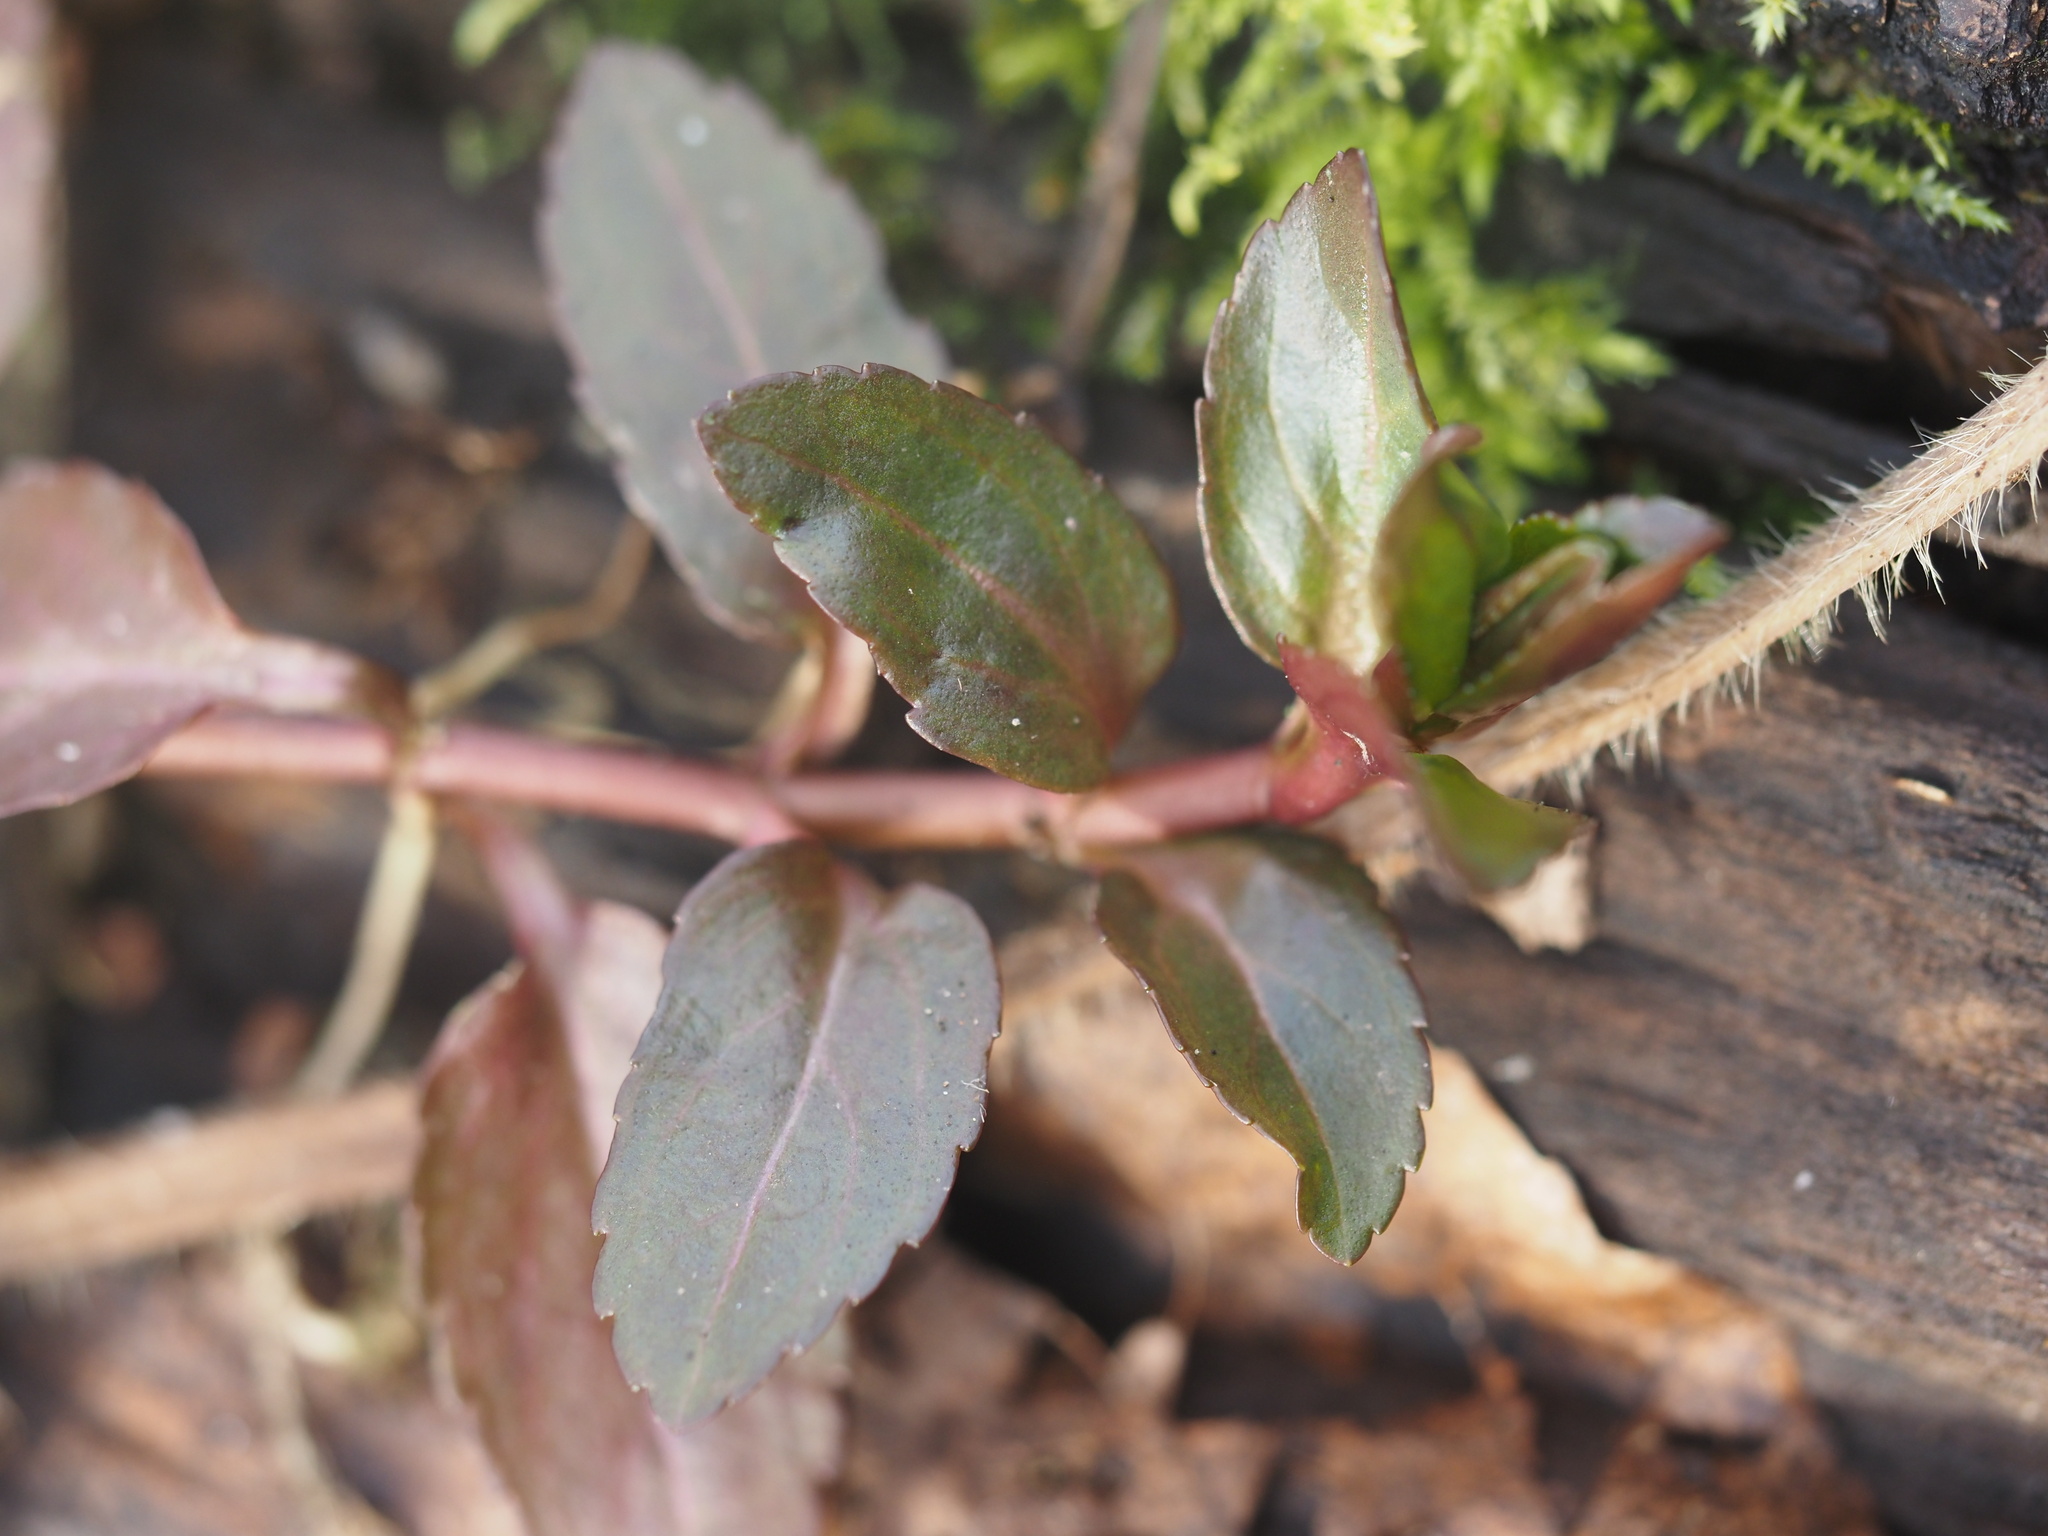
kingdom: Plantae
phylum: Tracheophyta
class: Magnoliopsida
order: Lamiales
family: Plantaginaceae
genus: Veronica
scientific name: Veronica americana
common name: American brooklime
